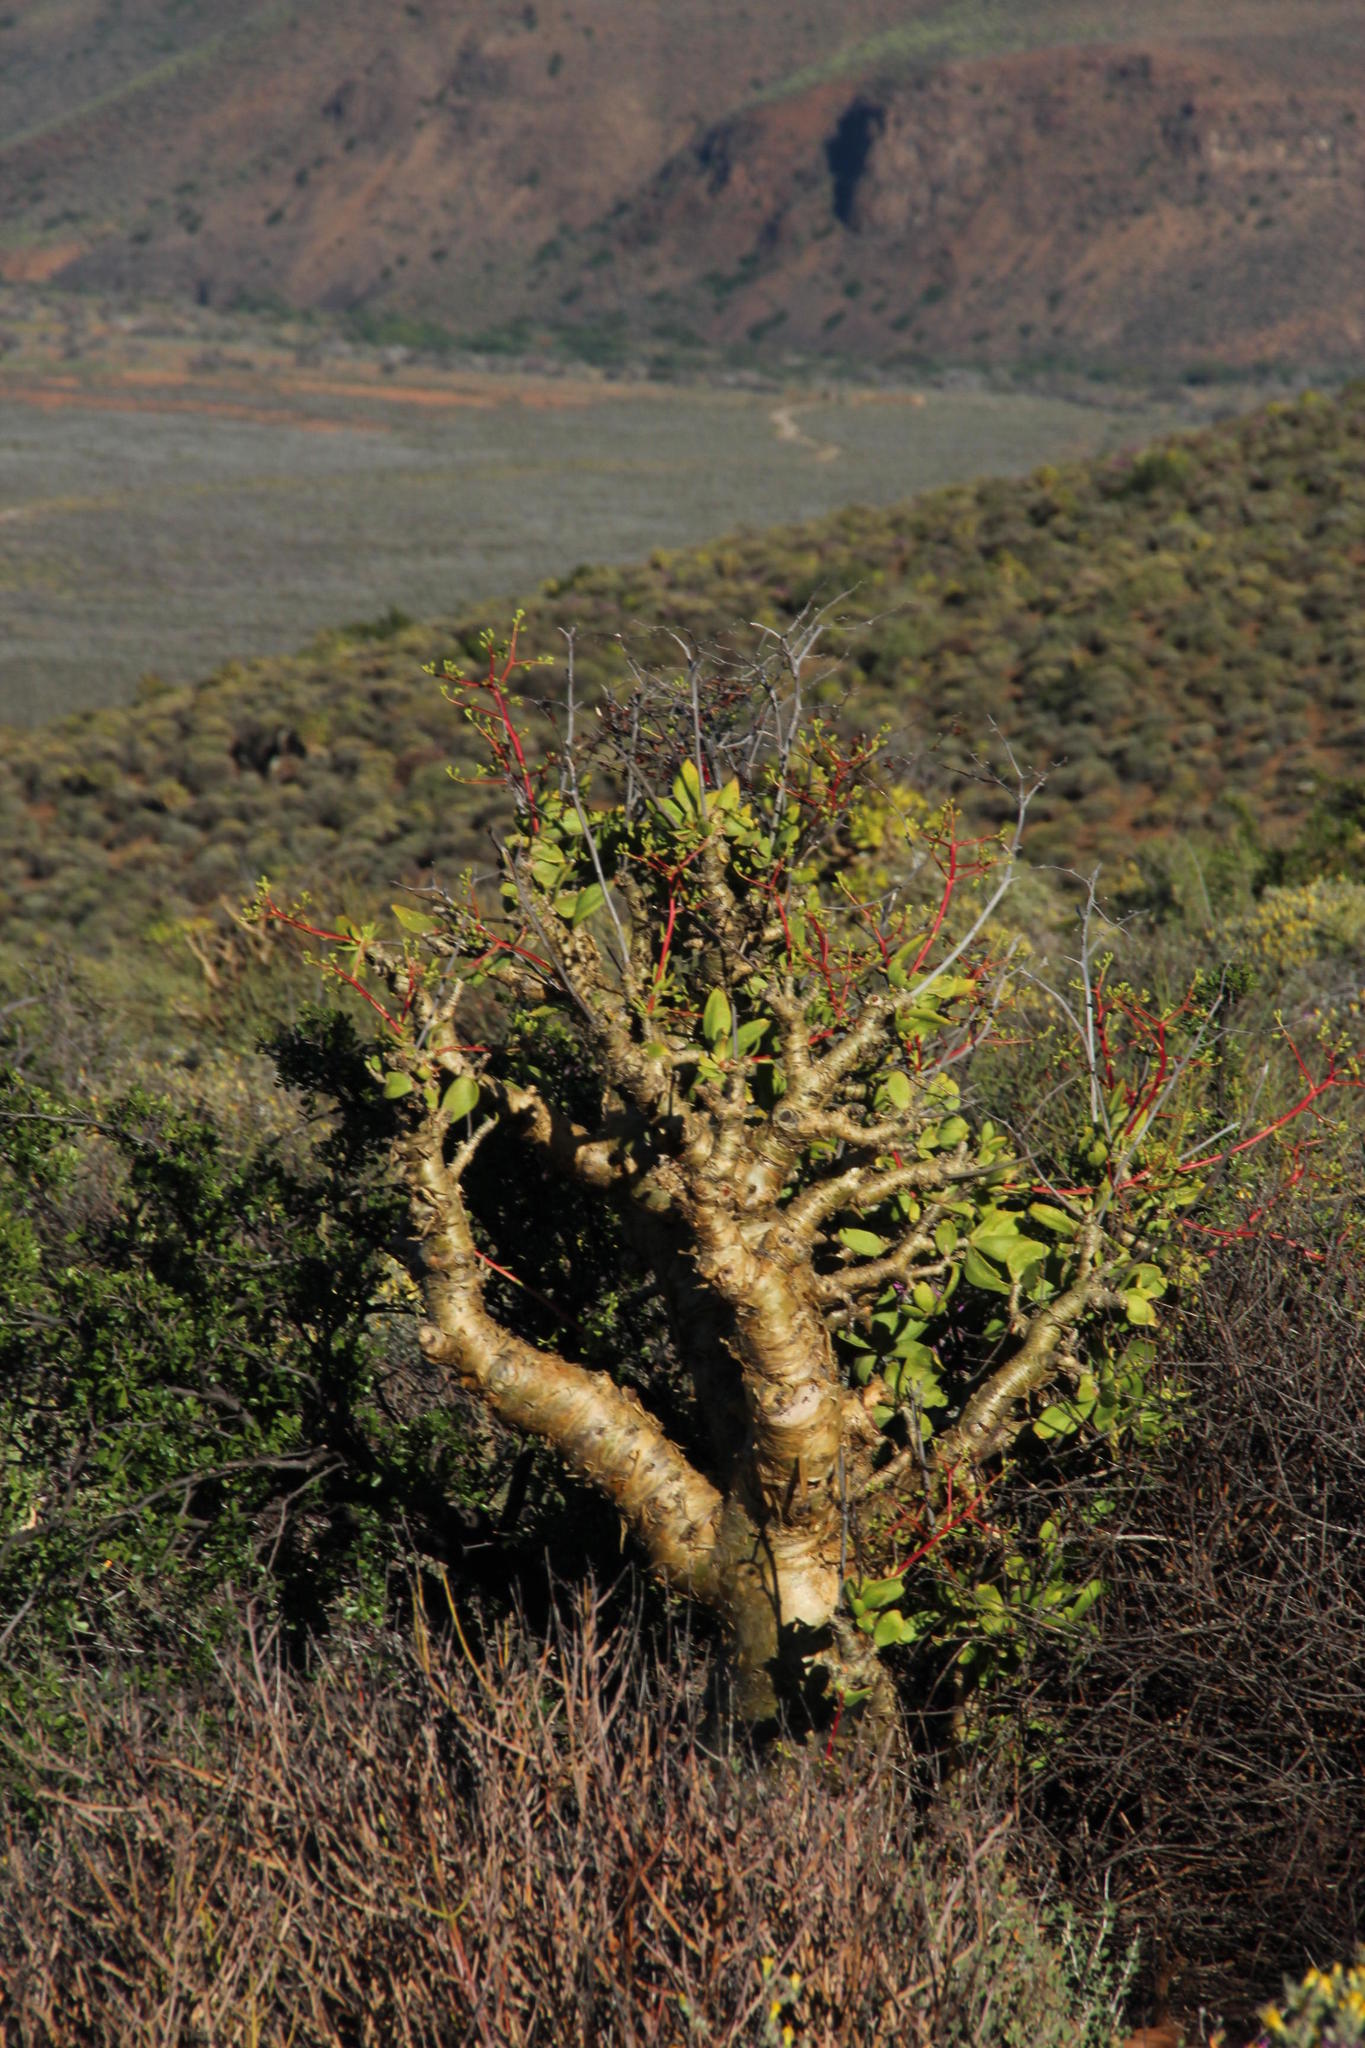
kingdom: Plantae
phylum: Tracheophyta
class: Magnoliopsida
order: Saxifragales
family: Crassulaceae
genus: Tylecodon
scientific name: Tylecodon paniculatus
